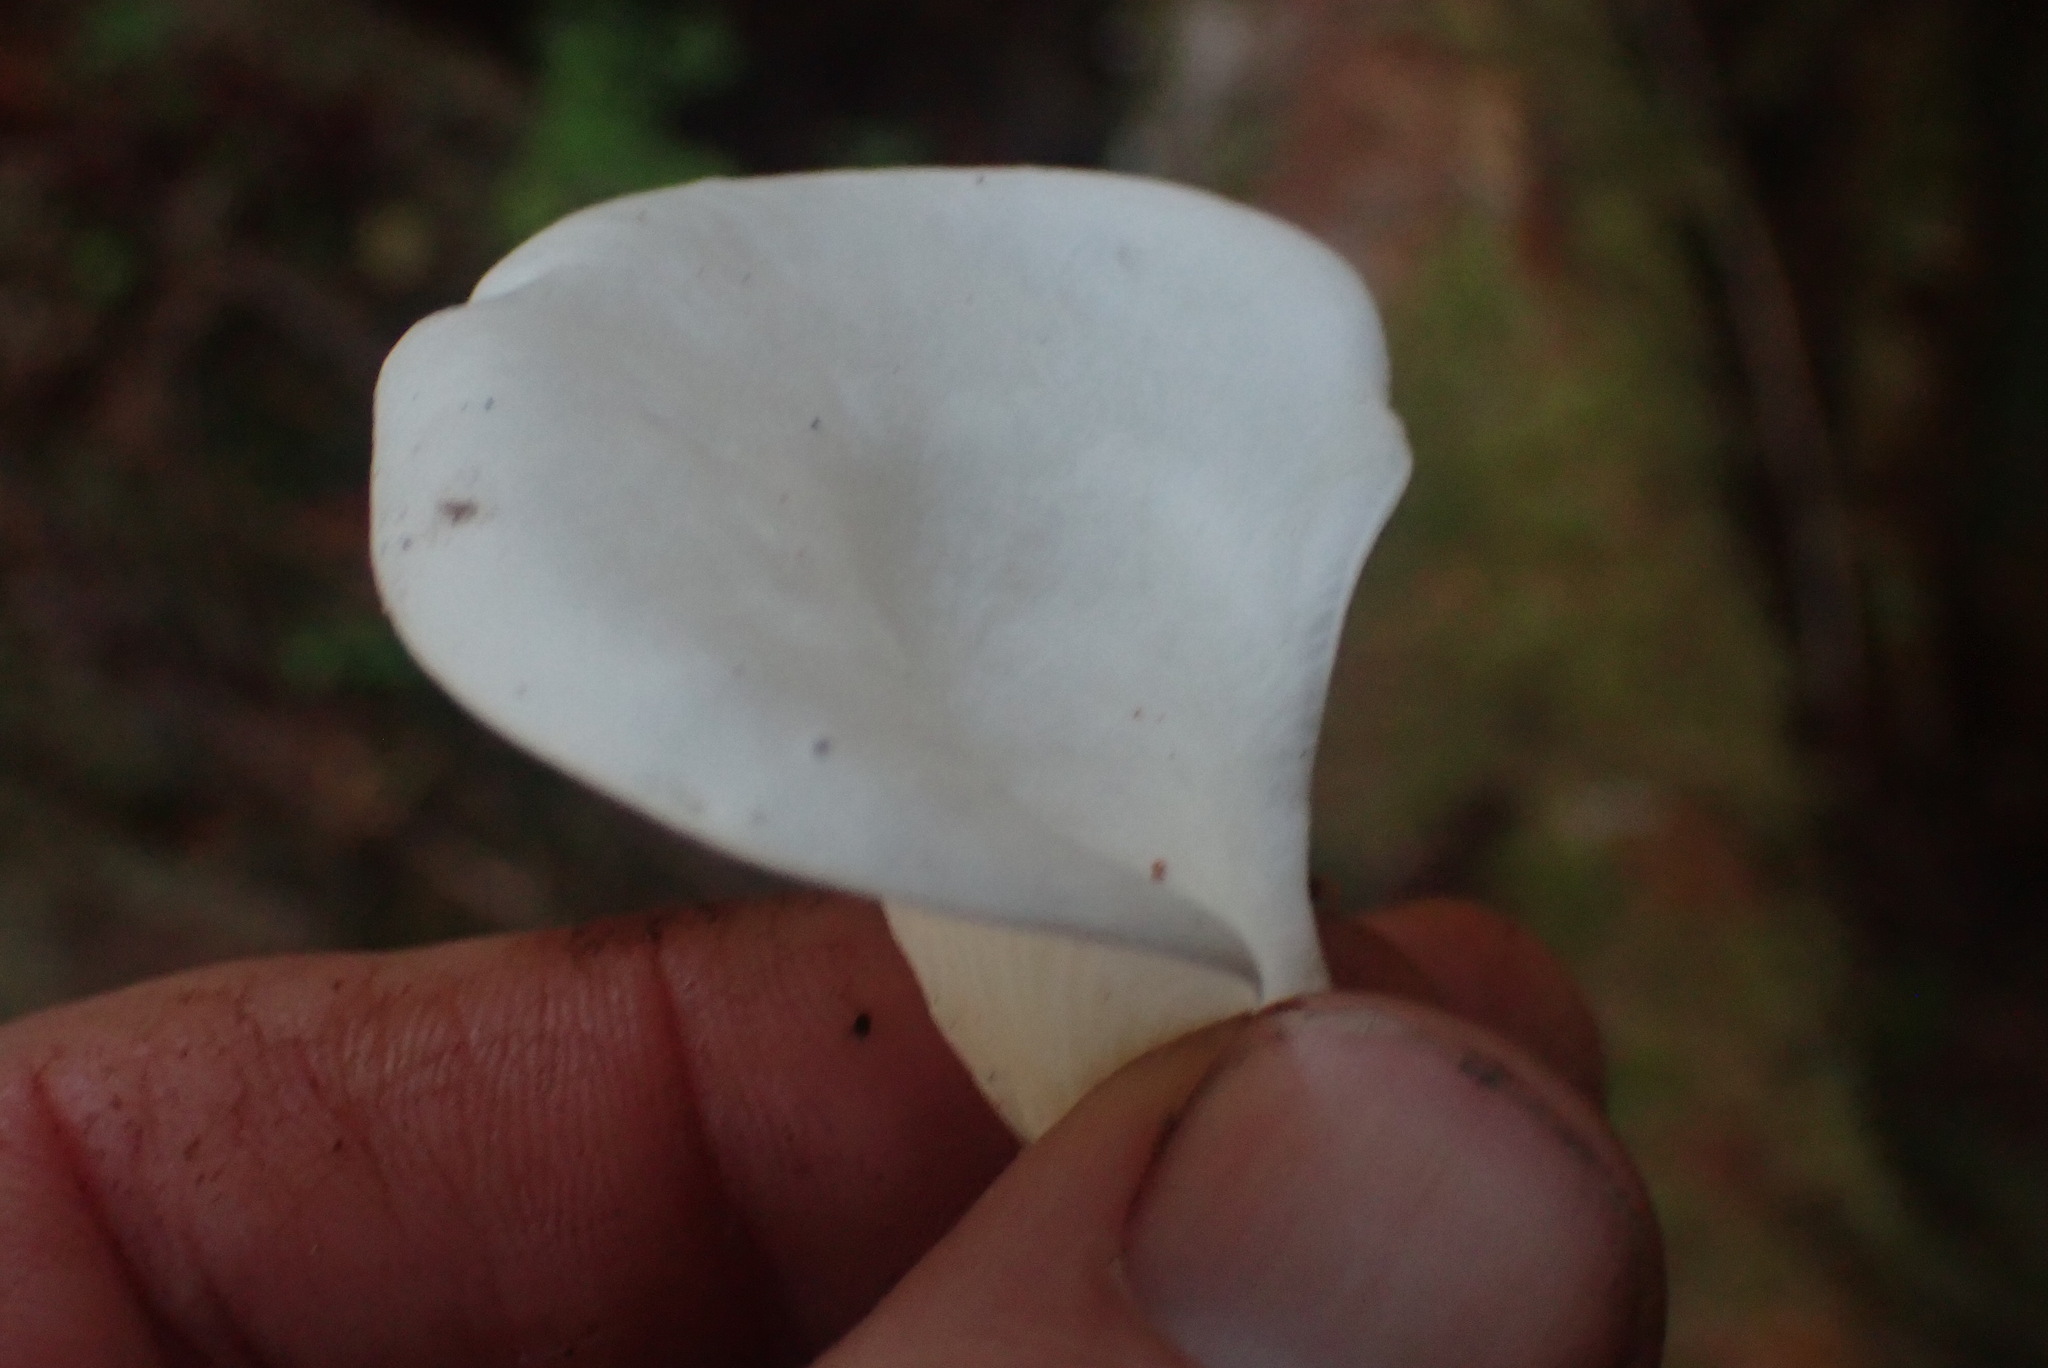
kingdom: Fungi
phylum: Basidiomycota
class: Agaricomycetes
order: Agaricales
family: Marasmiaceae
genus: Pleurocybella
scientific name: Pleurocybella porrigens
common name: Angel's wings
